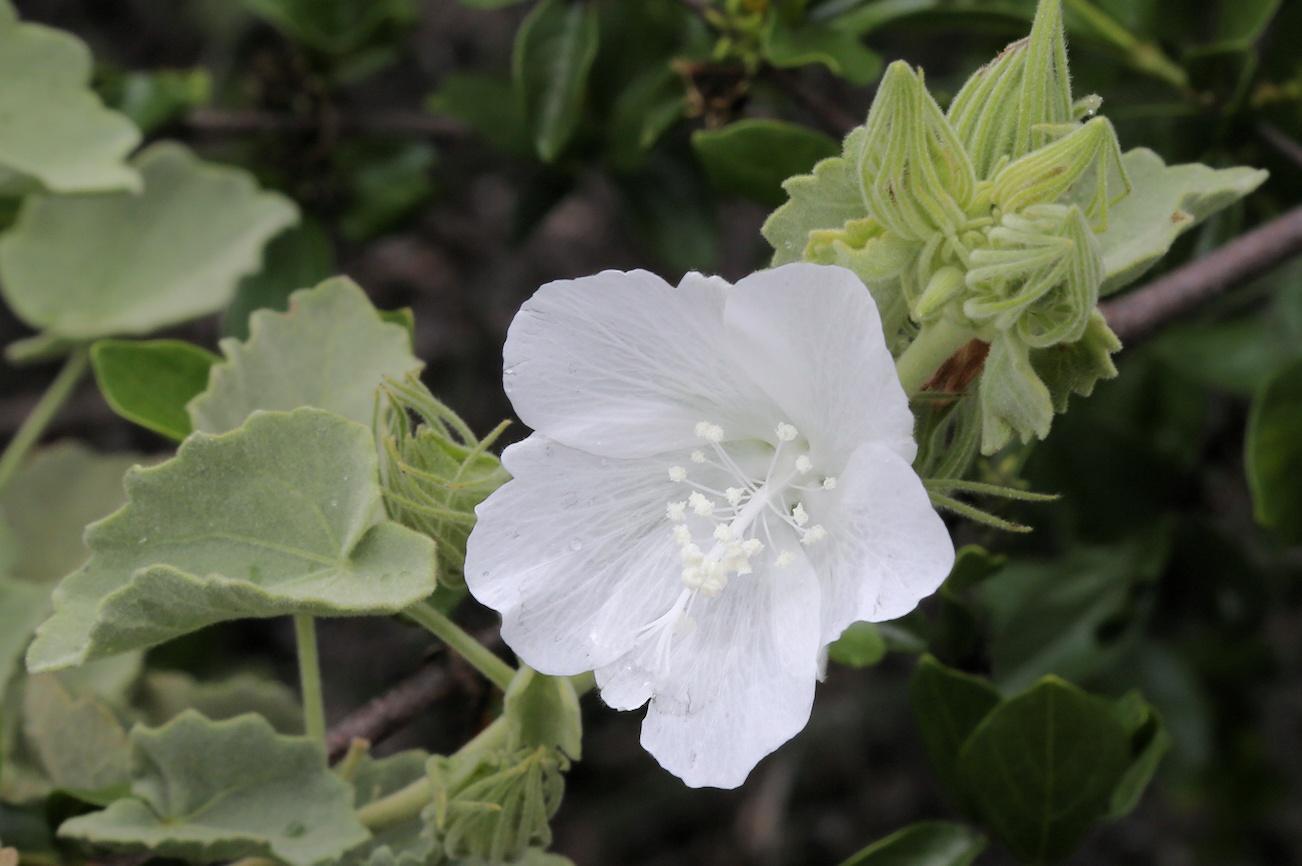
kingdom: Plantae
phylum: Tracheophyta
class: Magnoliopsida
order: Malvales
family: Malvaceae
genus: Pavonia
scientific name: Pavonia dentata
